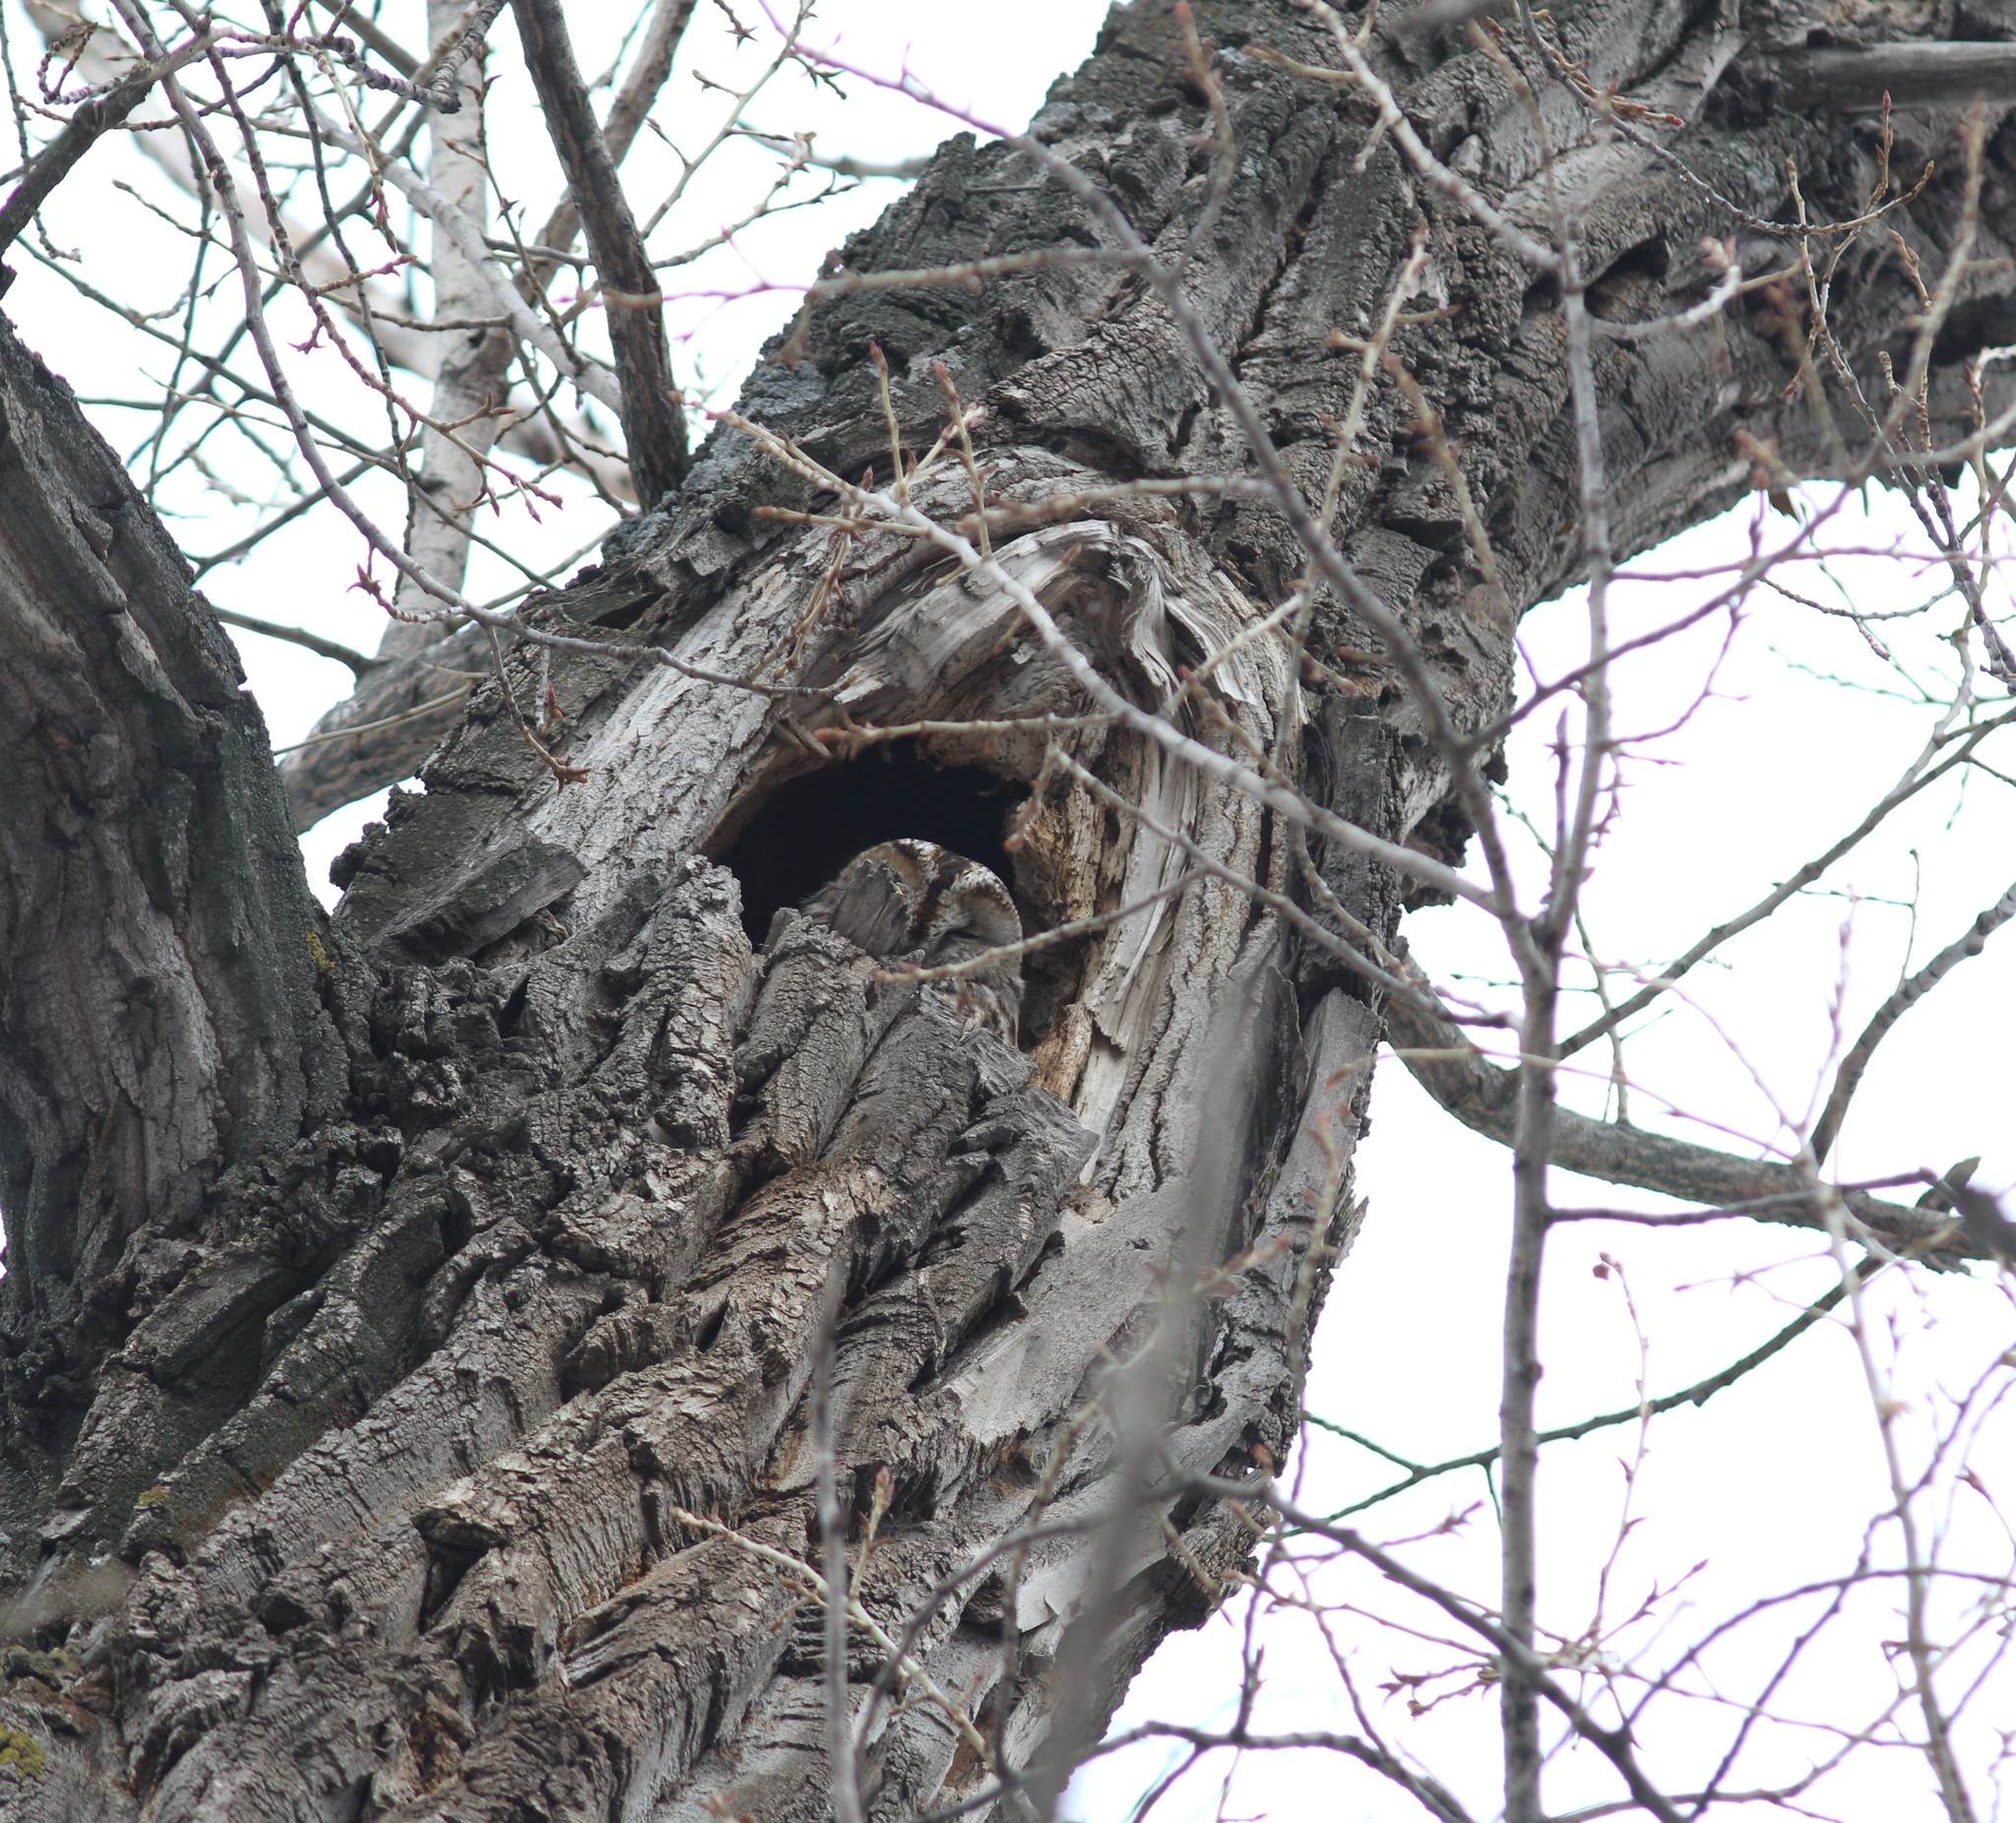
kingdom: Animalia
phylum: Chordata
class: Aves
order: Strigiformes
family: Strigidae
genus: Strix
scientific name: Strix aluco
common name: Tawny owl
